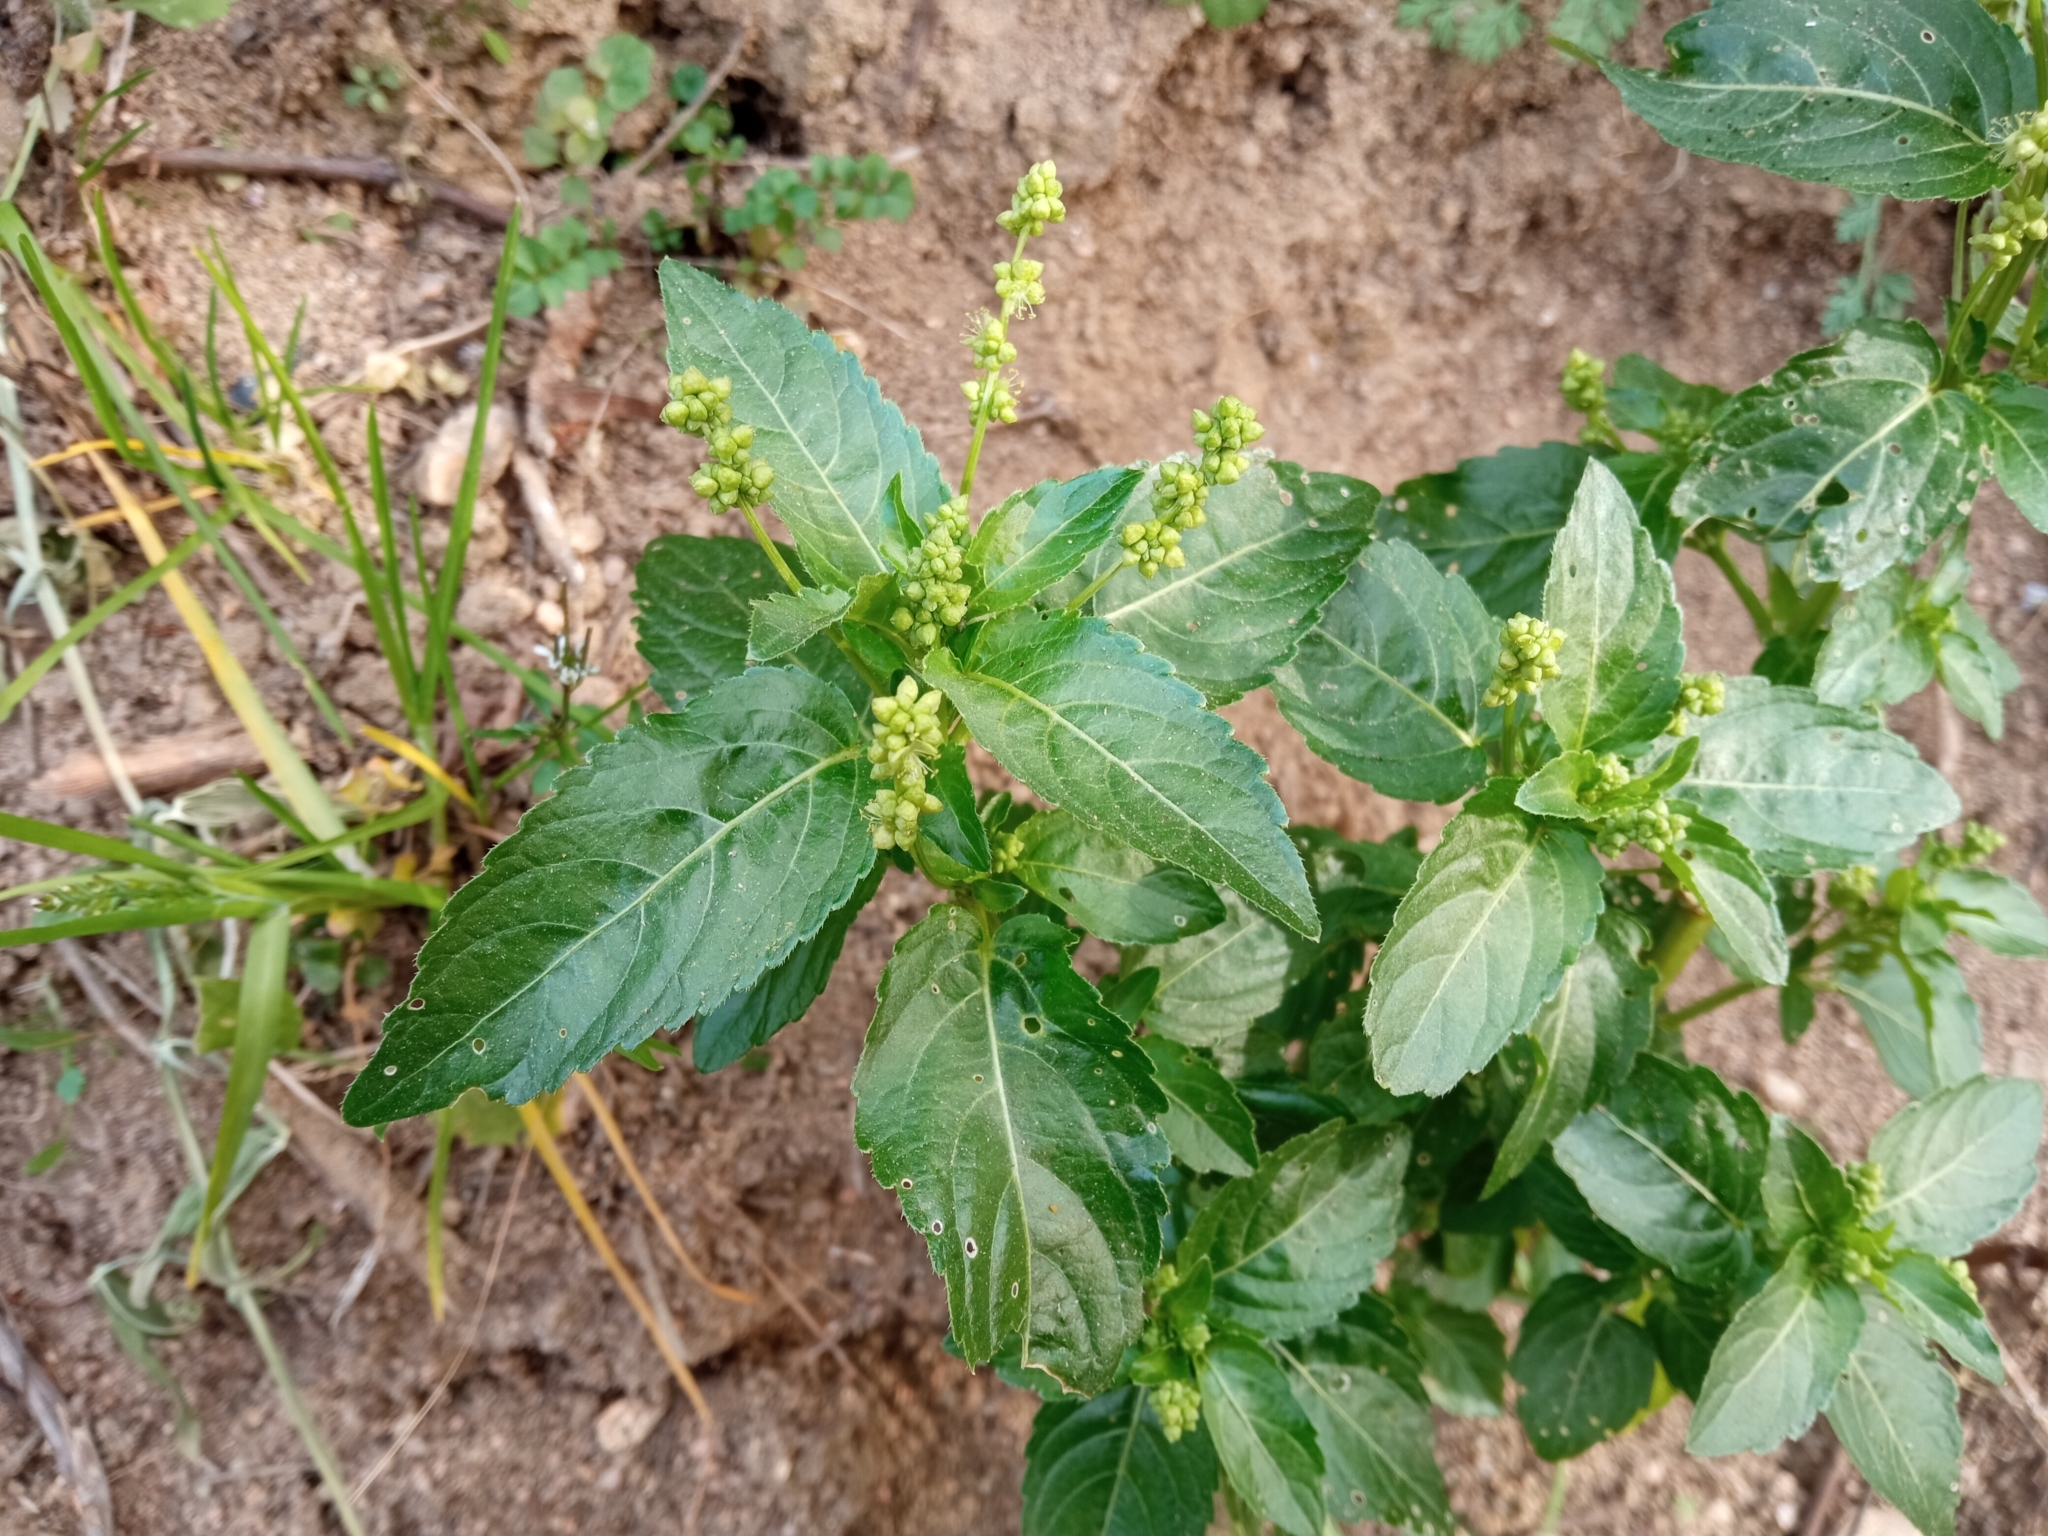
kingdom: Plantae
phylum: Tracheophyta
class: Magnoliopsida
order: Malpighiales
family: Euphorbiaceae
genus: Mercurialis
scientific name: Mercurialis annua
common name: Annual mercury
